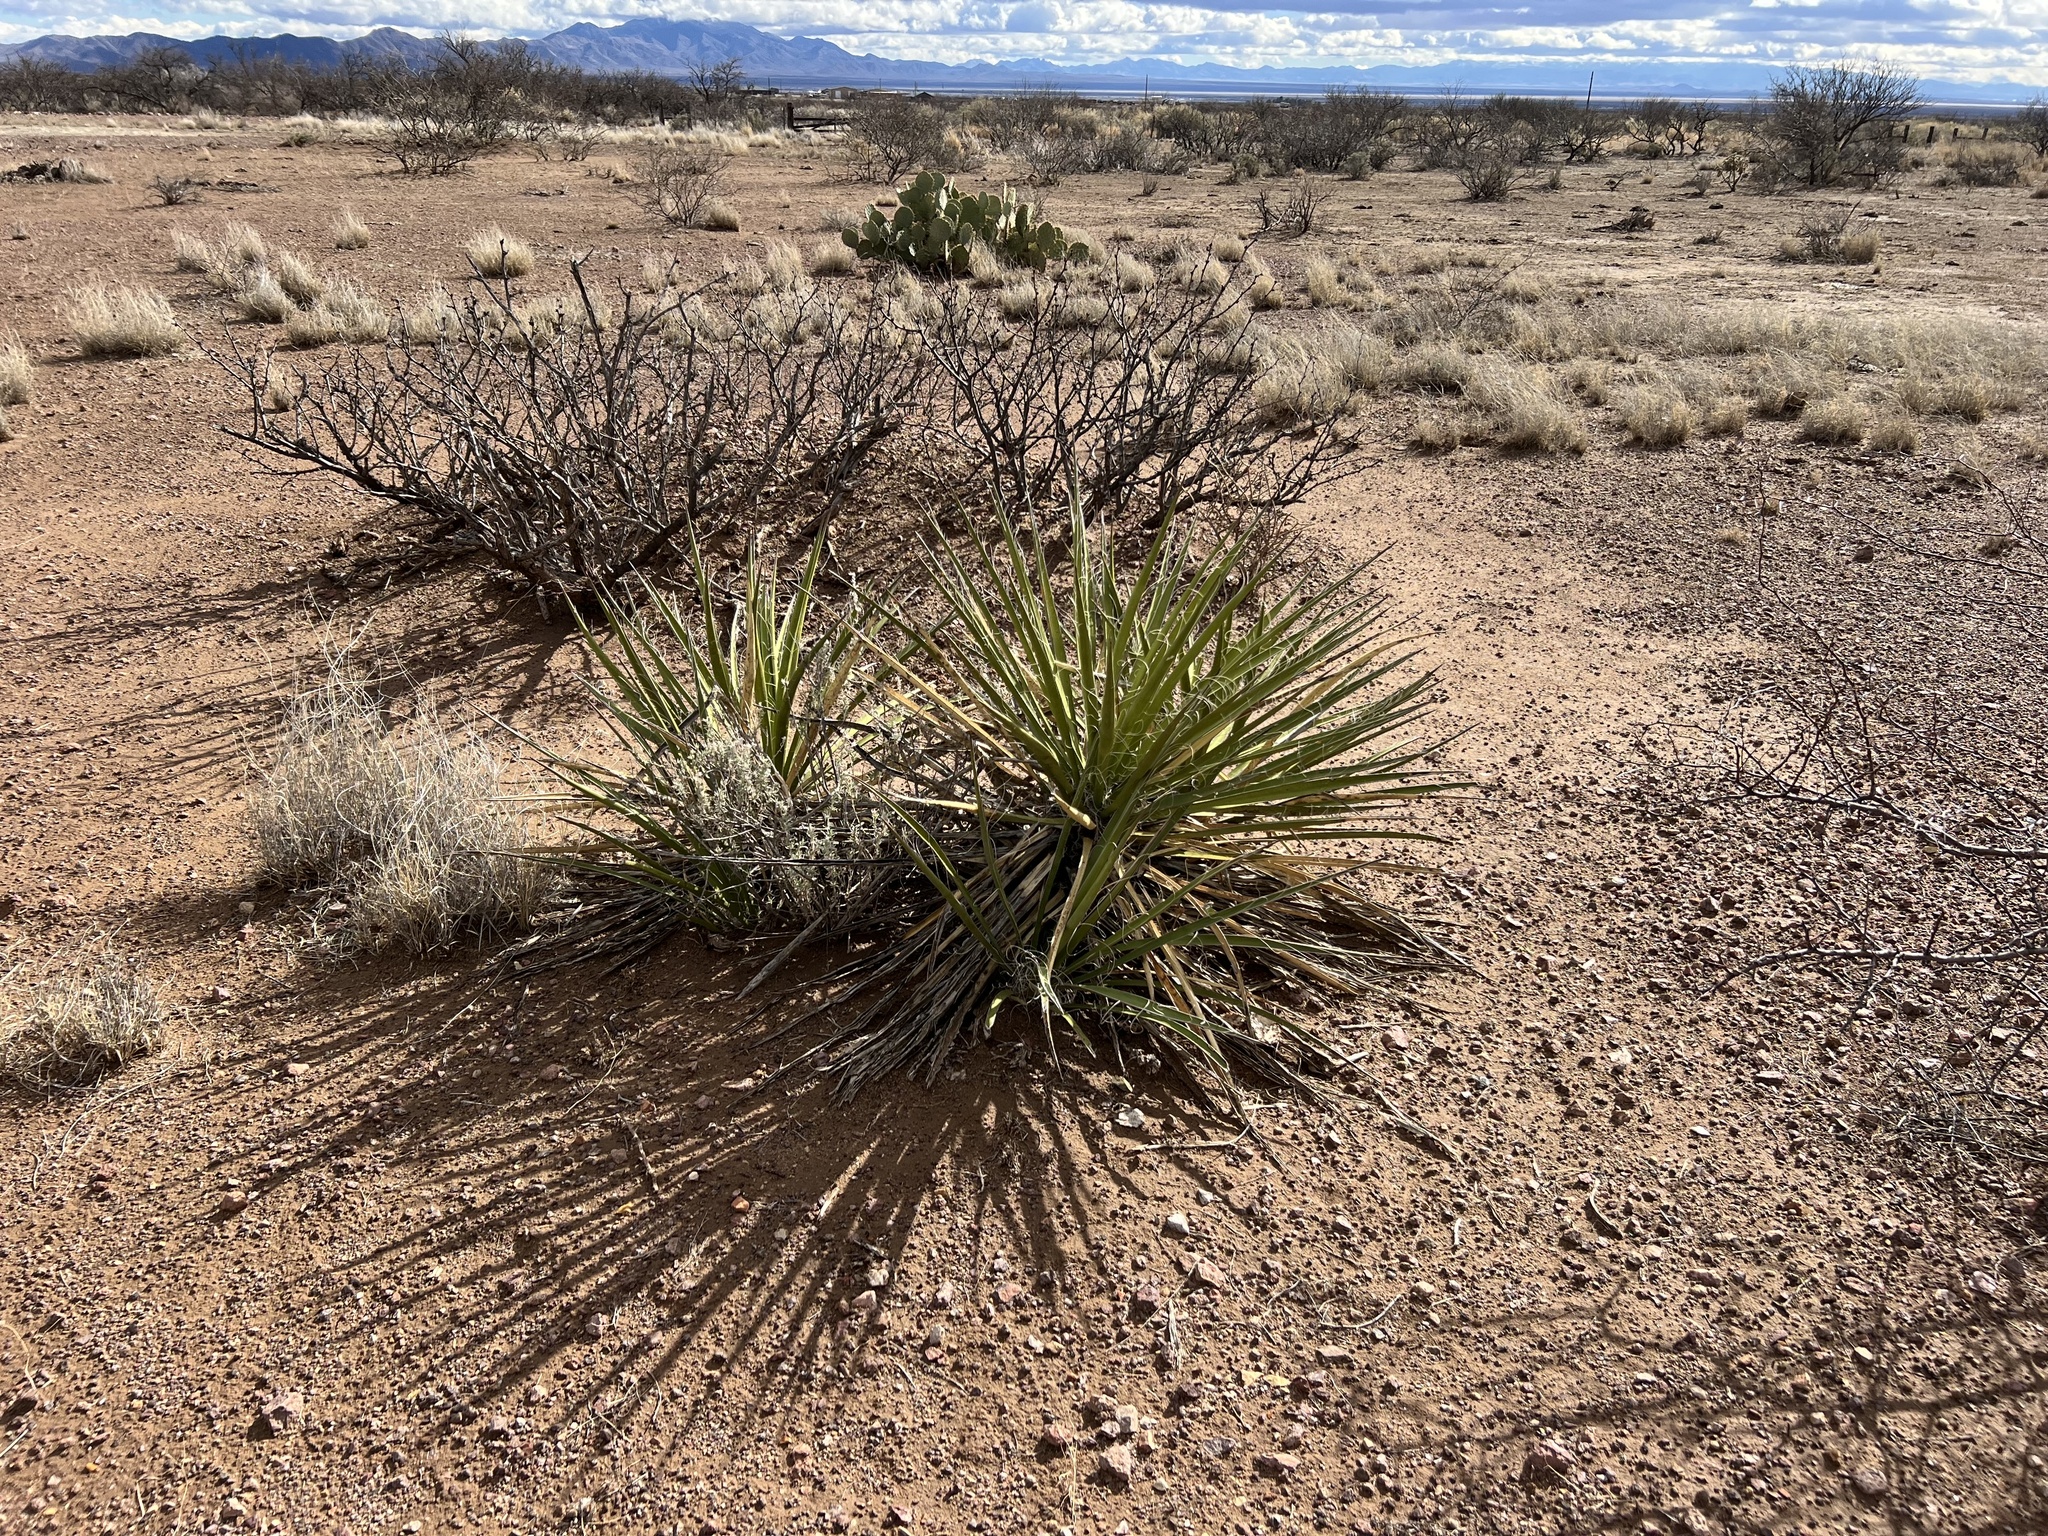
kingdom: Plantae
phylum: Tracheophyta
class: Liliopsida
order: Asparagales
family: Asparagaceae
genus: Yucca
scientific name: Yucca baccata
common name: Banana yucca
